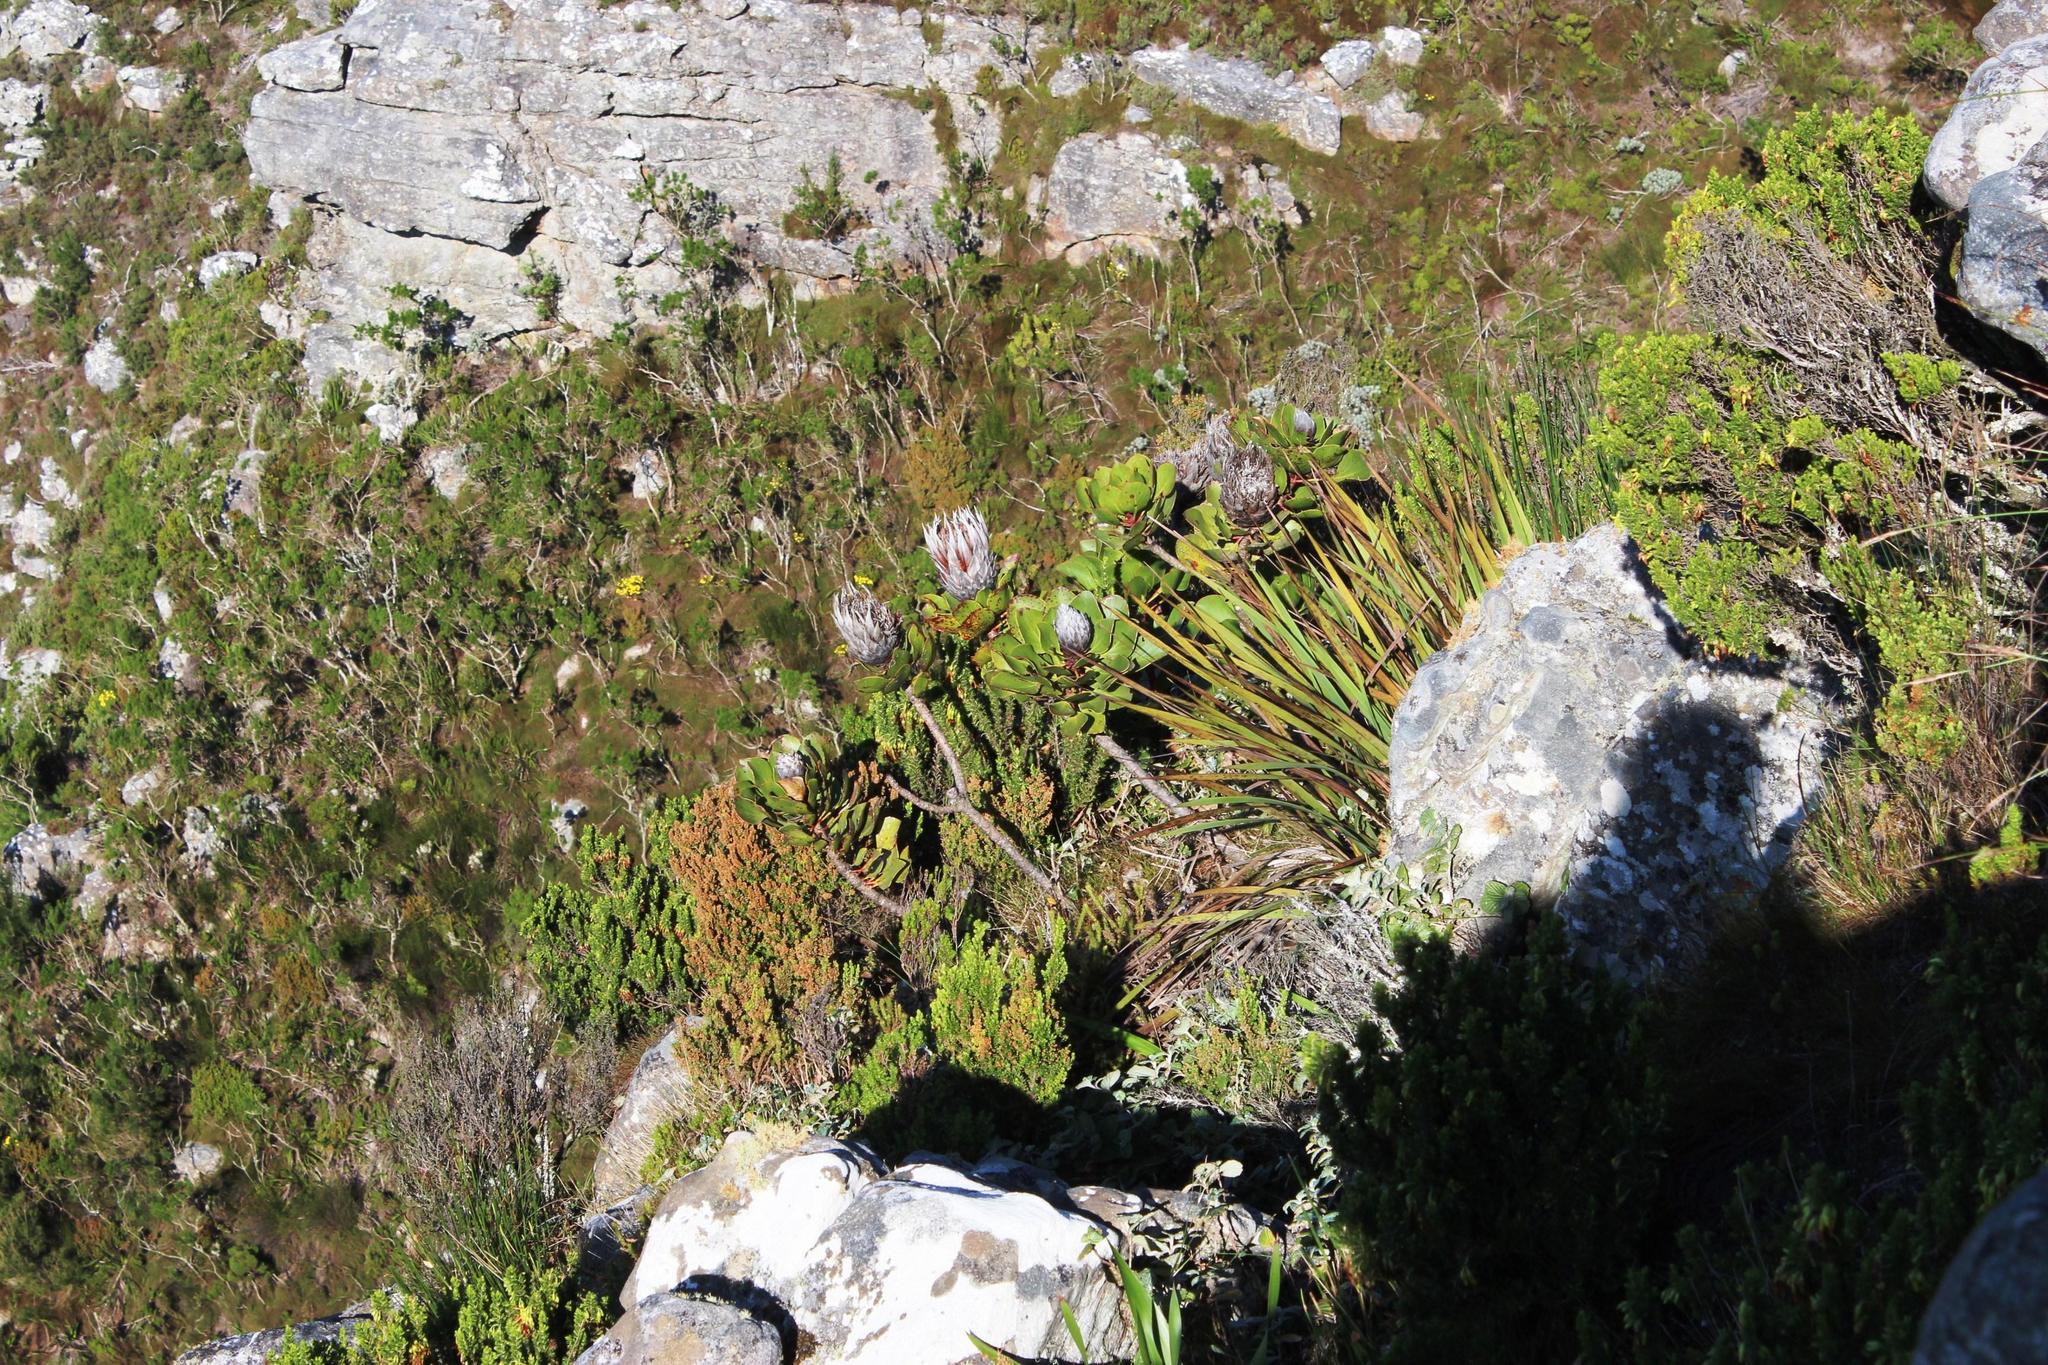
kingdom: Plantae
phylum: Tracheophyta
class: Magnoliopsida
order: Proteales
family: Proteaceae
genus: Protea
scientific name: Protea cynaroides
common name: King protea
